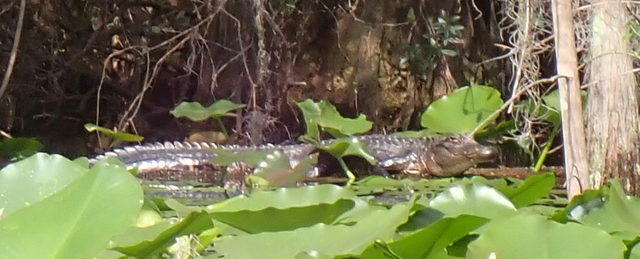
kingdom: Animalia
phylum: Chordata
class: Crocodylia
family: Alligatoridae
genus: Alligator
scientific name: Alligator mississippiensis
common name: American alligator
